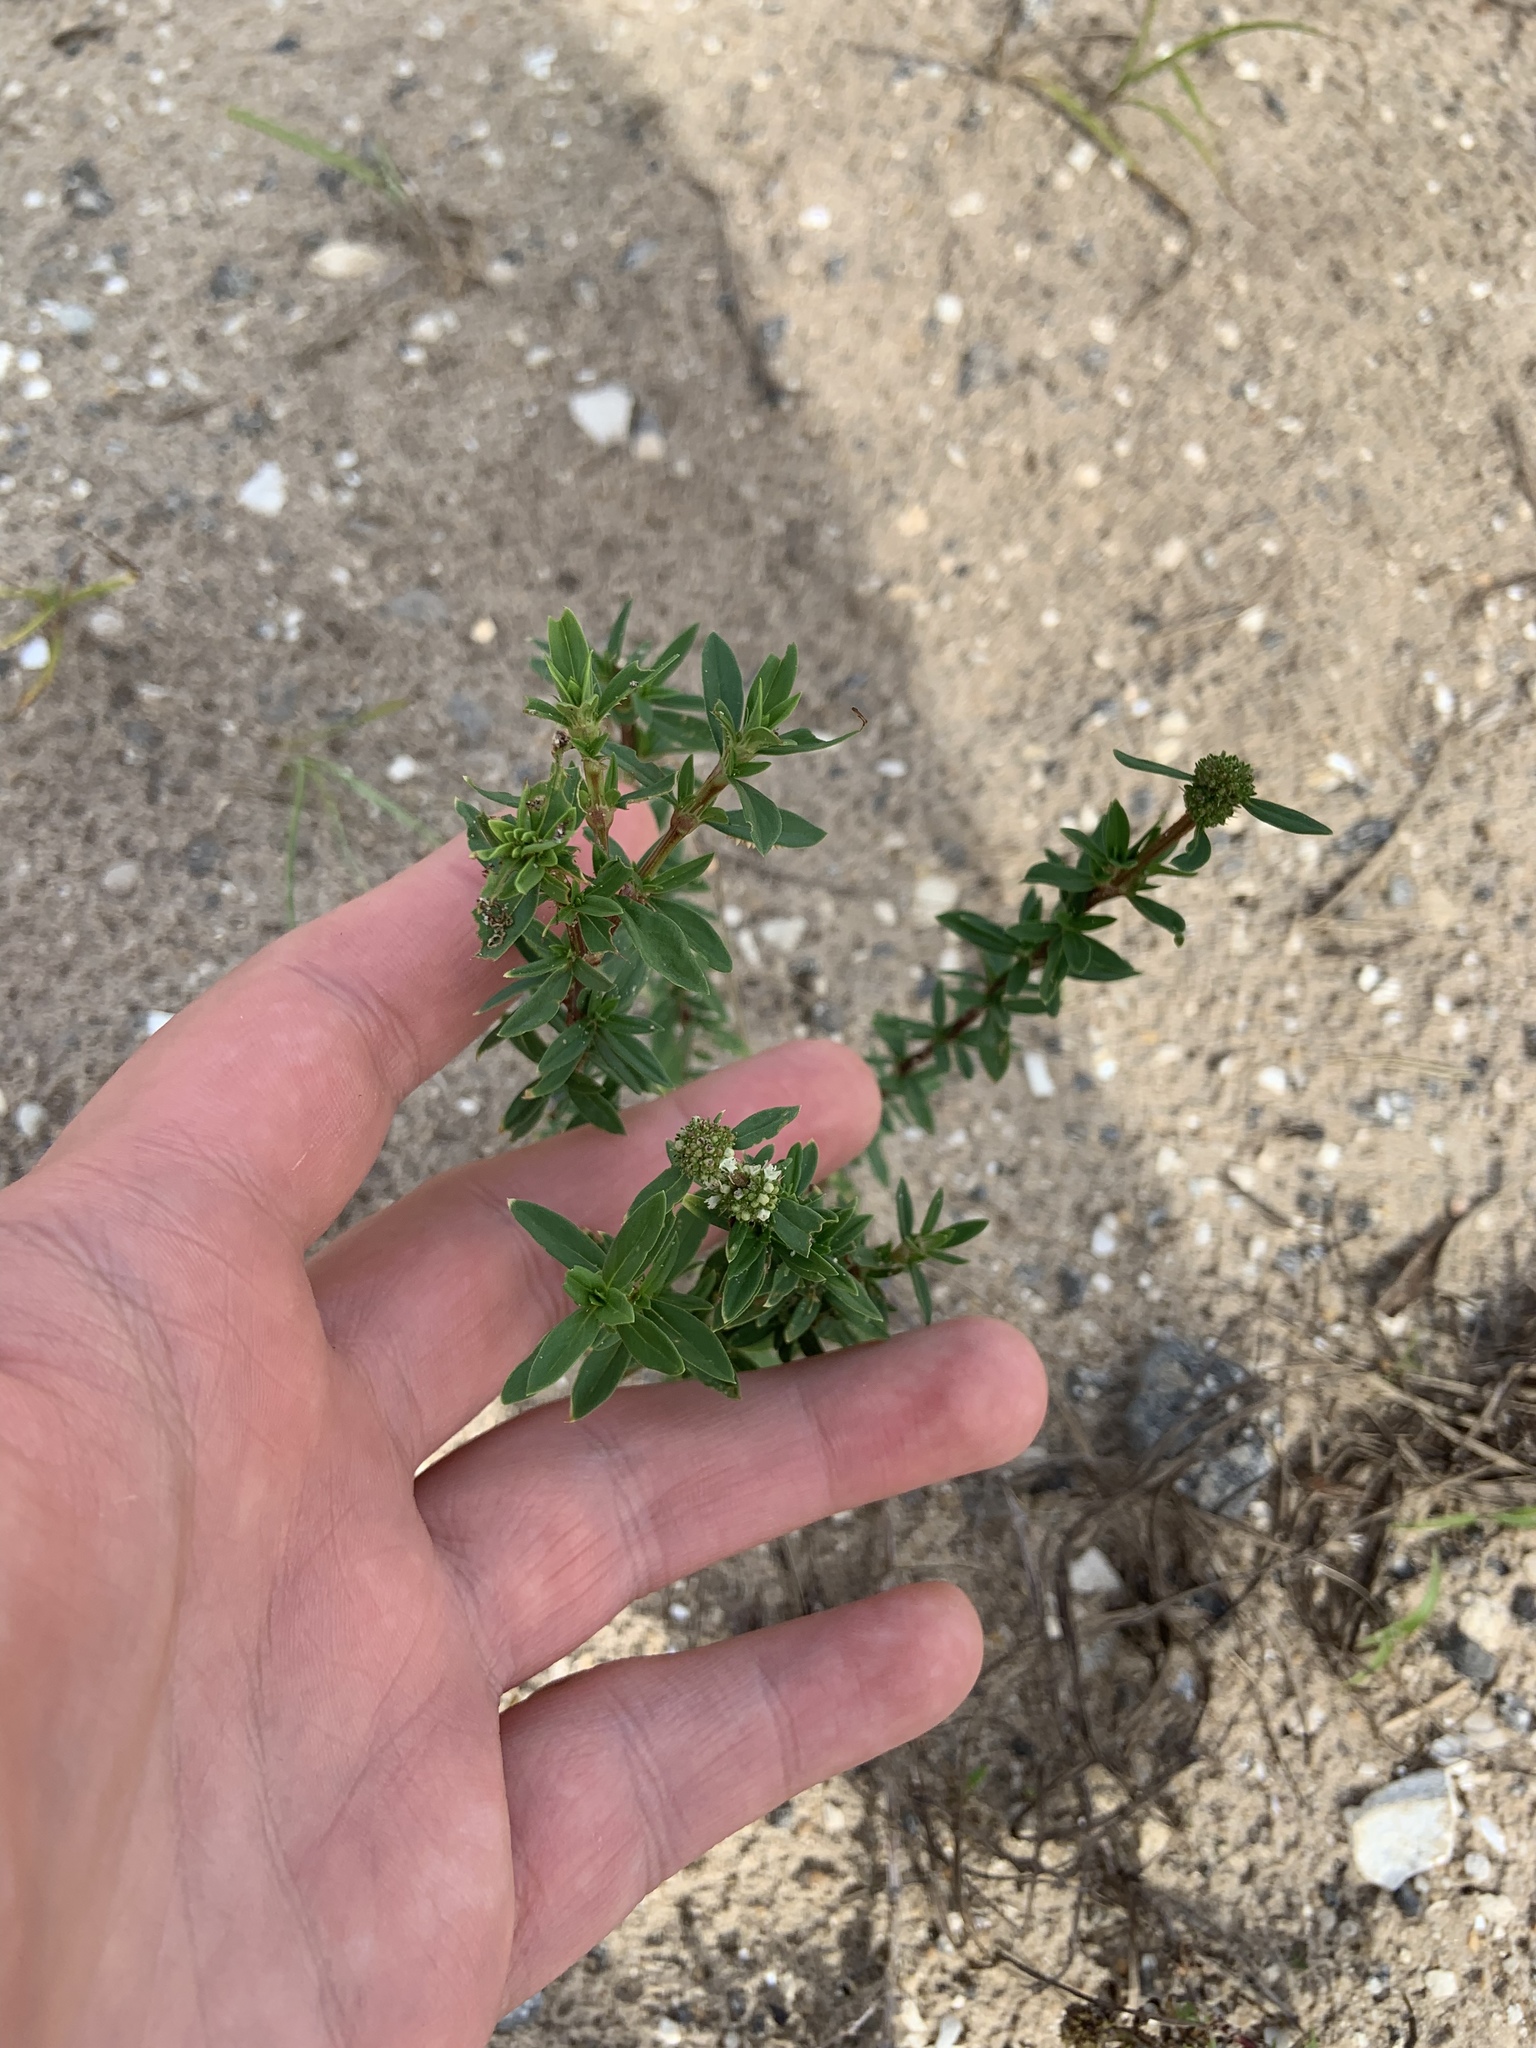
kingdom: Plantae
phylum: Tracheophyta
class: Magnoliopsida
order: Gentianales
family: Rubiaceae
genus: Spermacoce
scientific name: Spermacoce verticillata
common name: Shrubby false buttonweed
